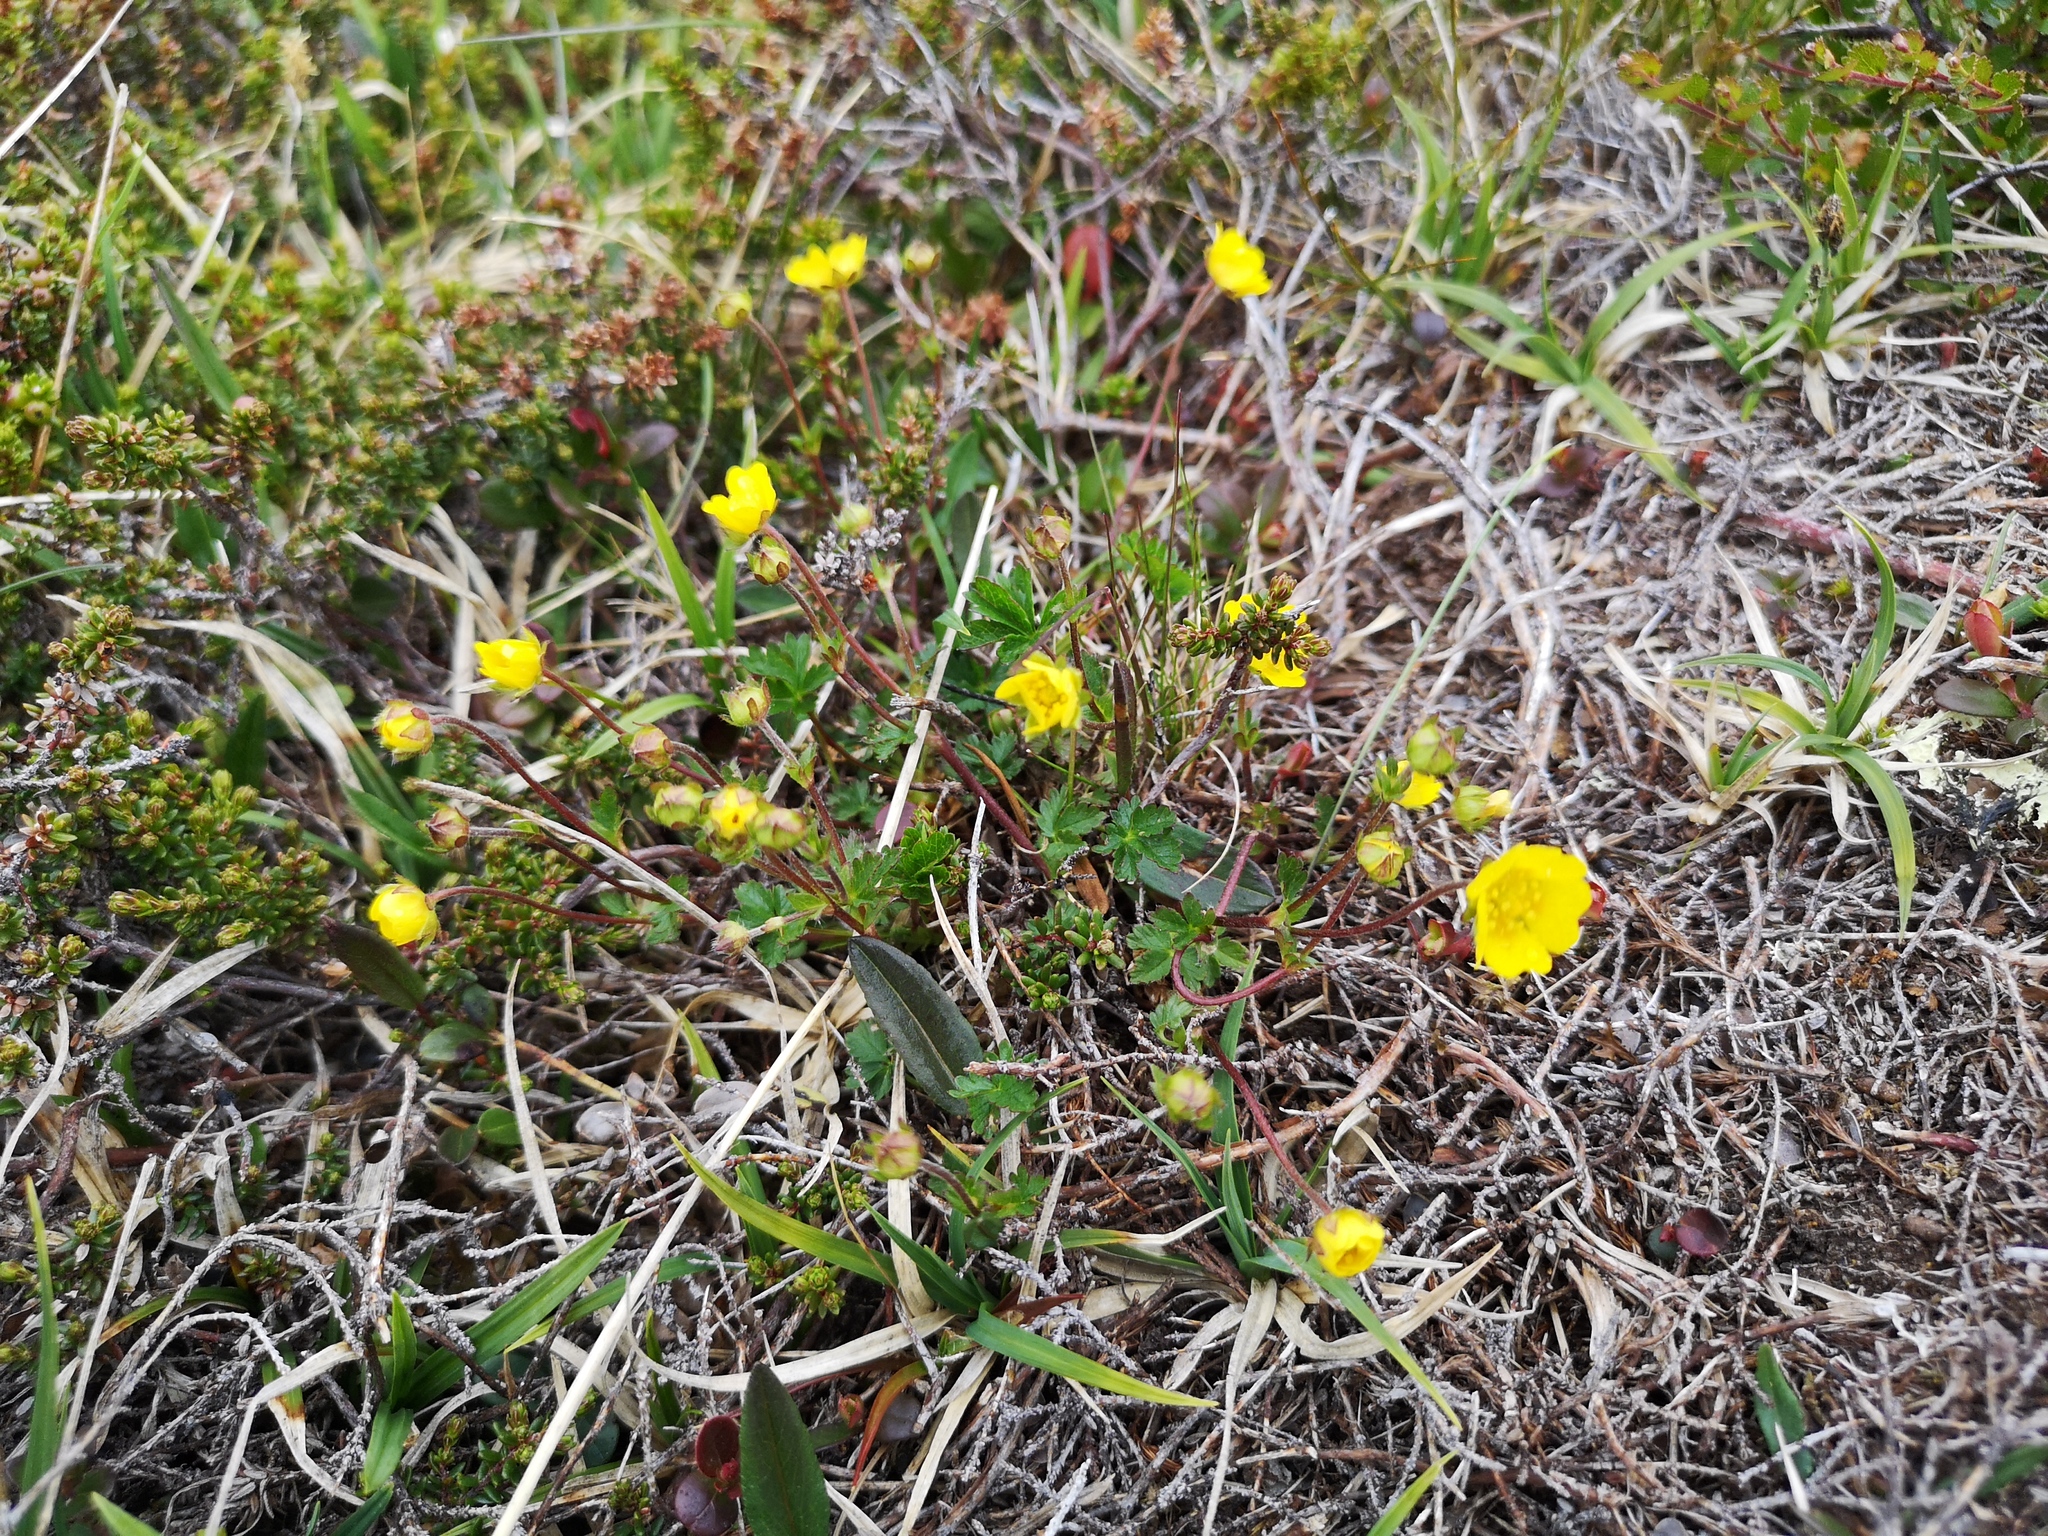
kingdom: Plantae
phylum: Tracheophyta
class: Magnoliopsida
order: Rosales
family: Rosaceae
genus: Potentilla
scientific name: Potentilla crantzii
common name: Alpine cinquefoil
